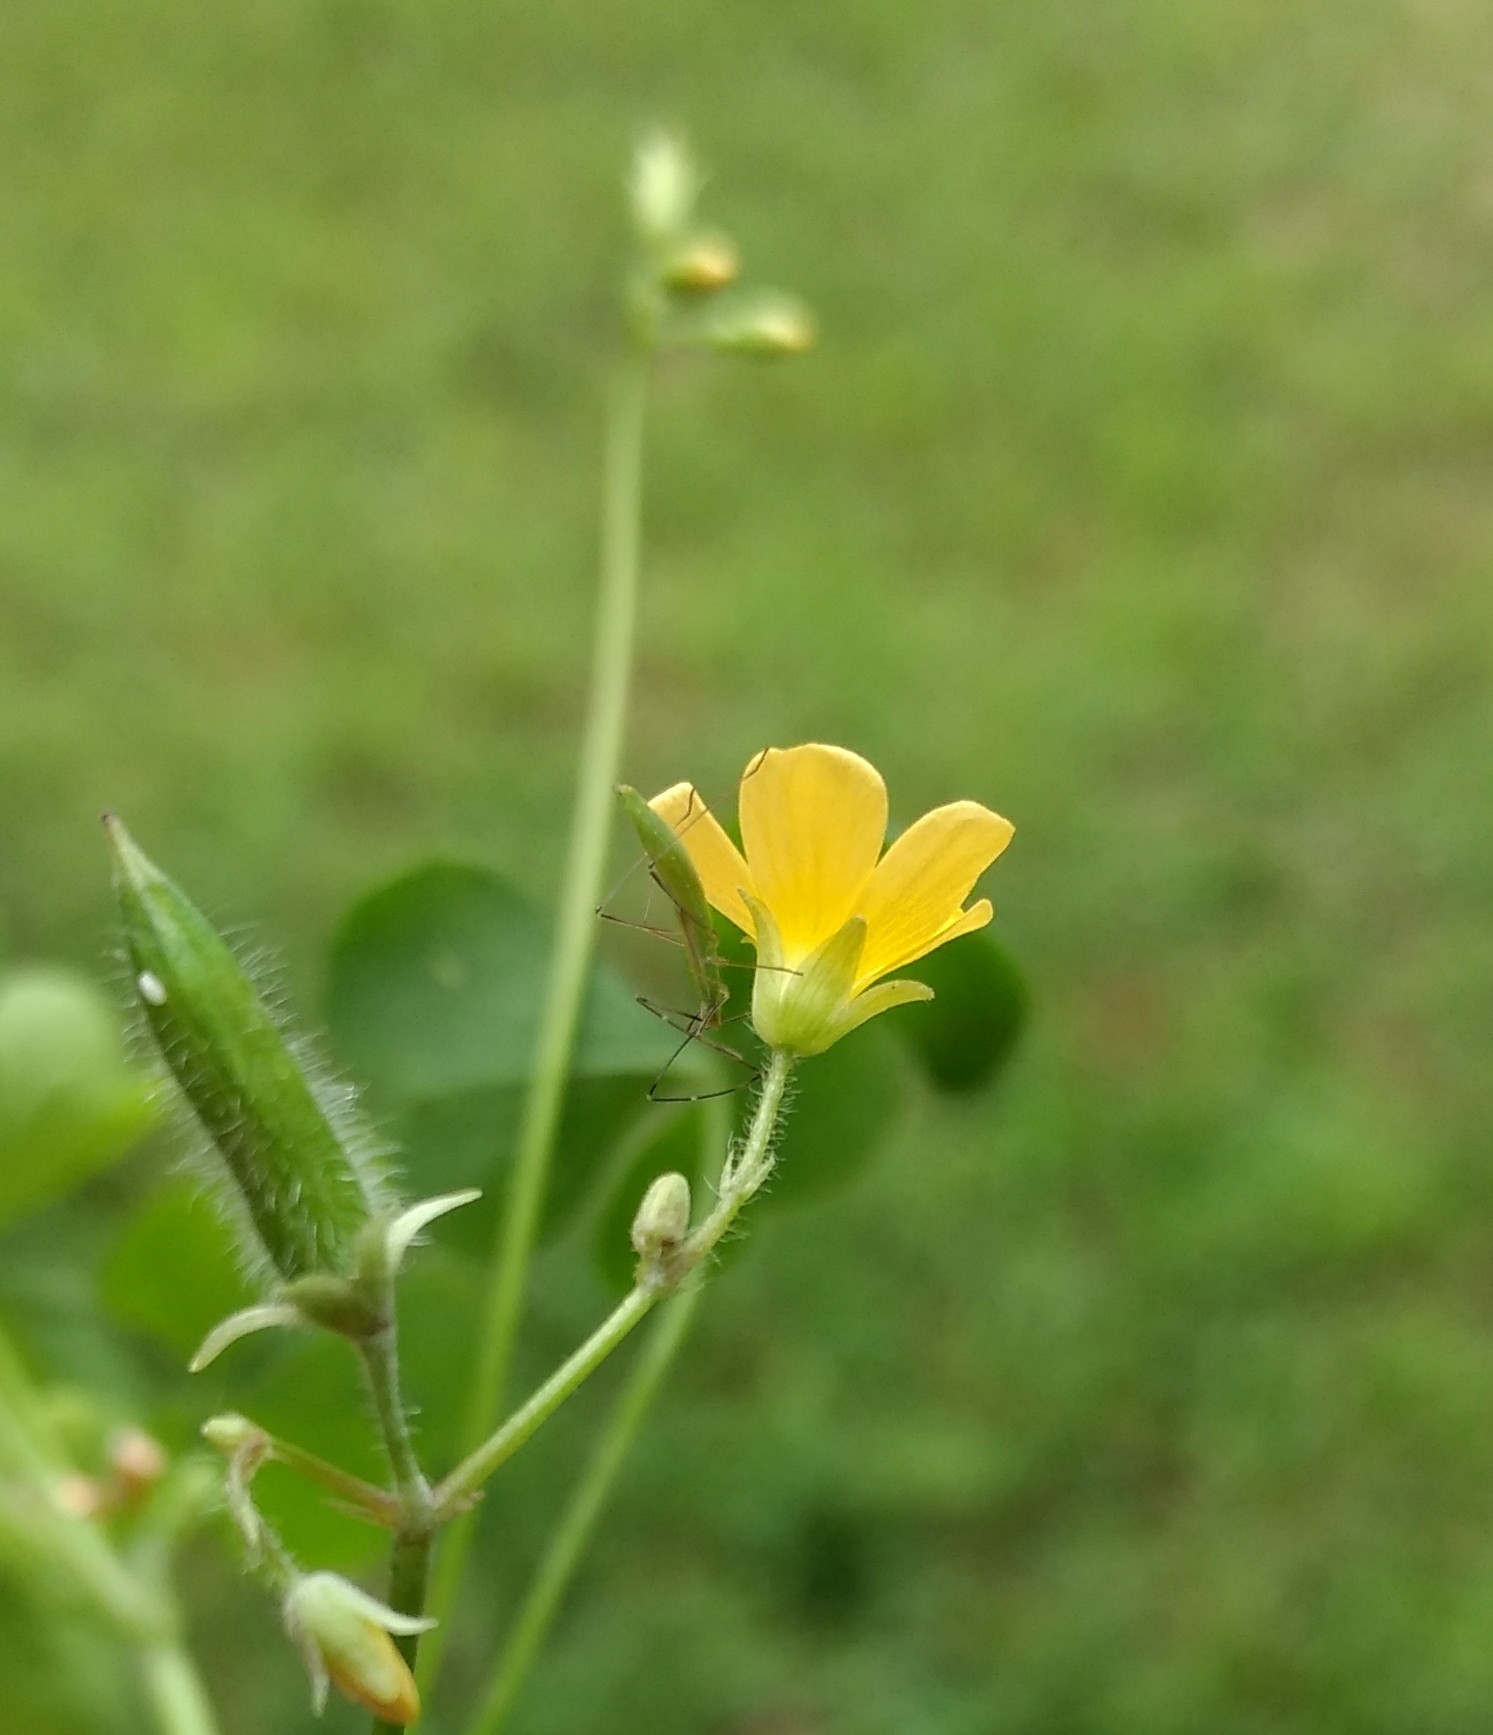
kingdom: Animalia
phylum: Arthropoda
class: Insecta
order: Hemiptera
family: Reduviidae
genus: Zelus
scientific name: Zelus luridus
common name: Pale green assassin bug
